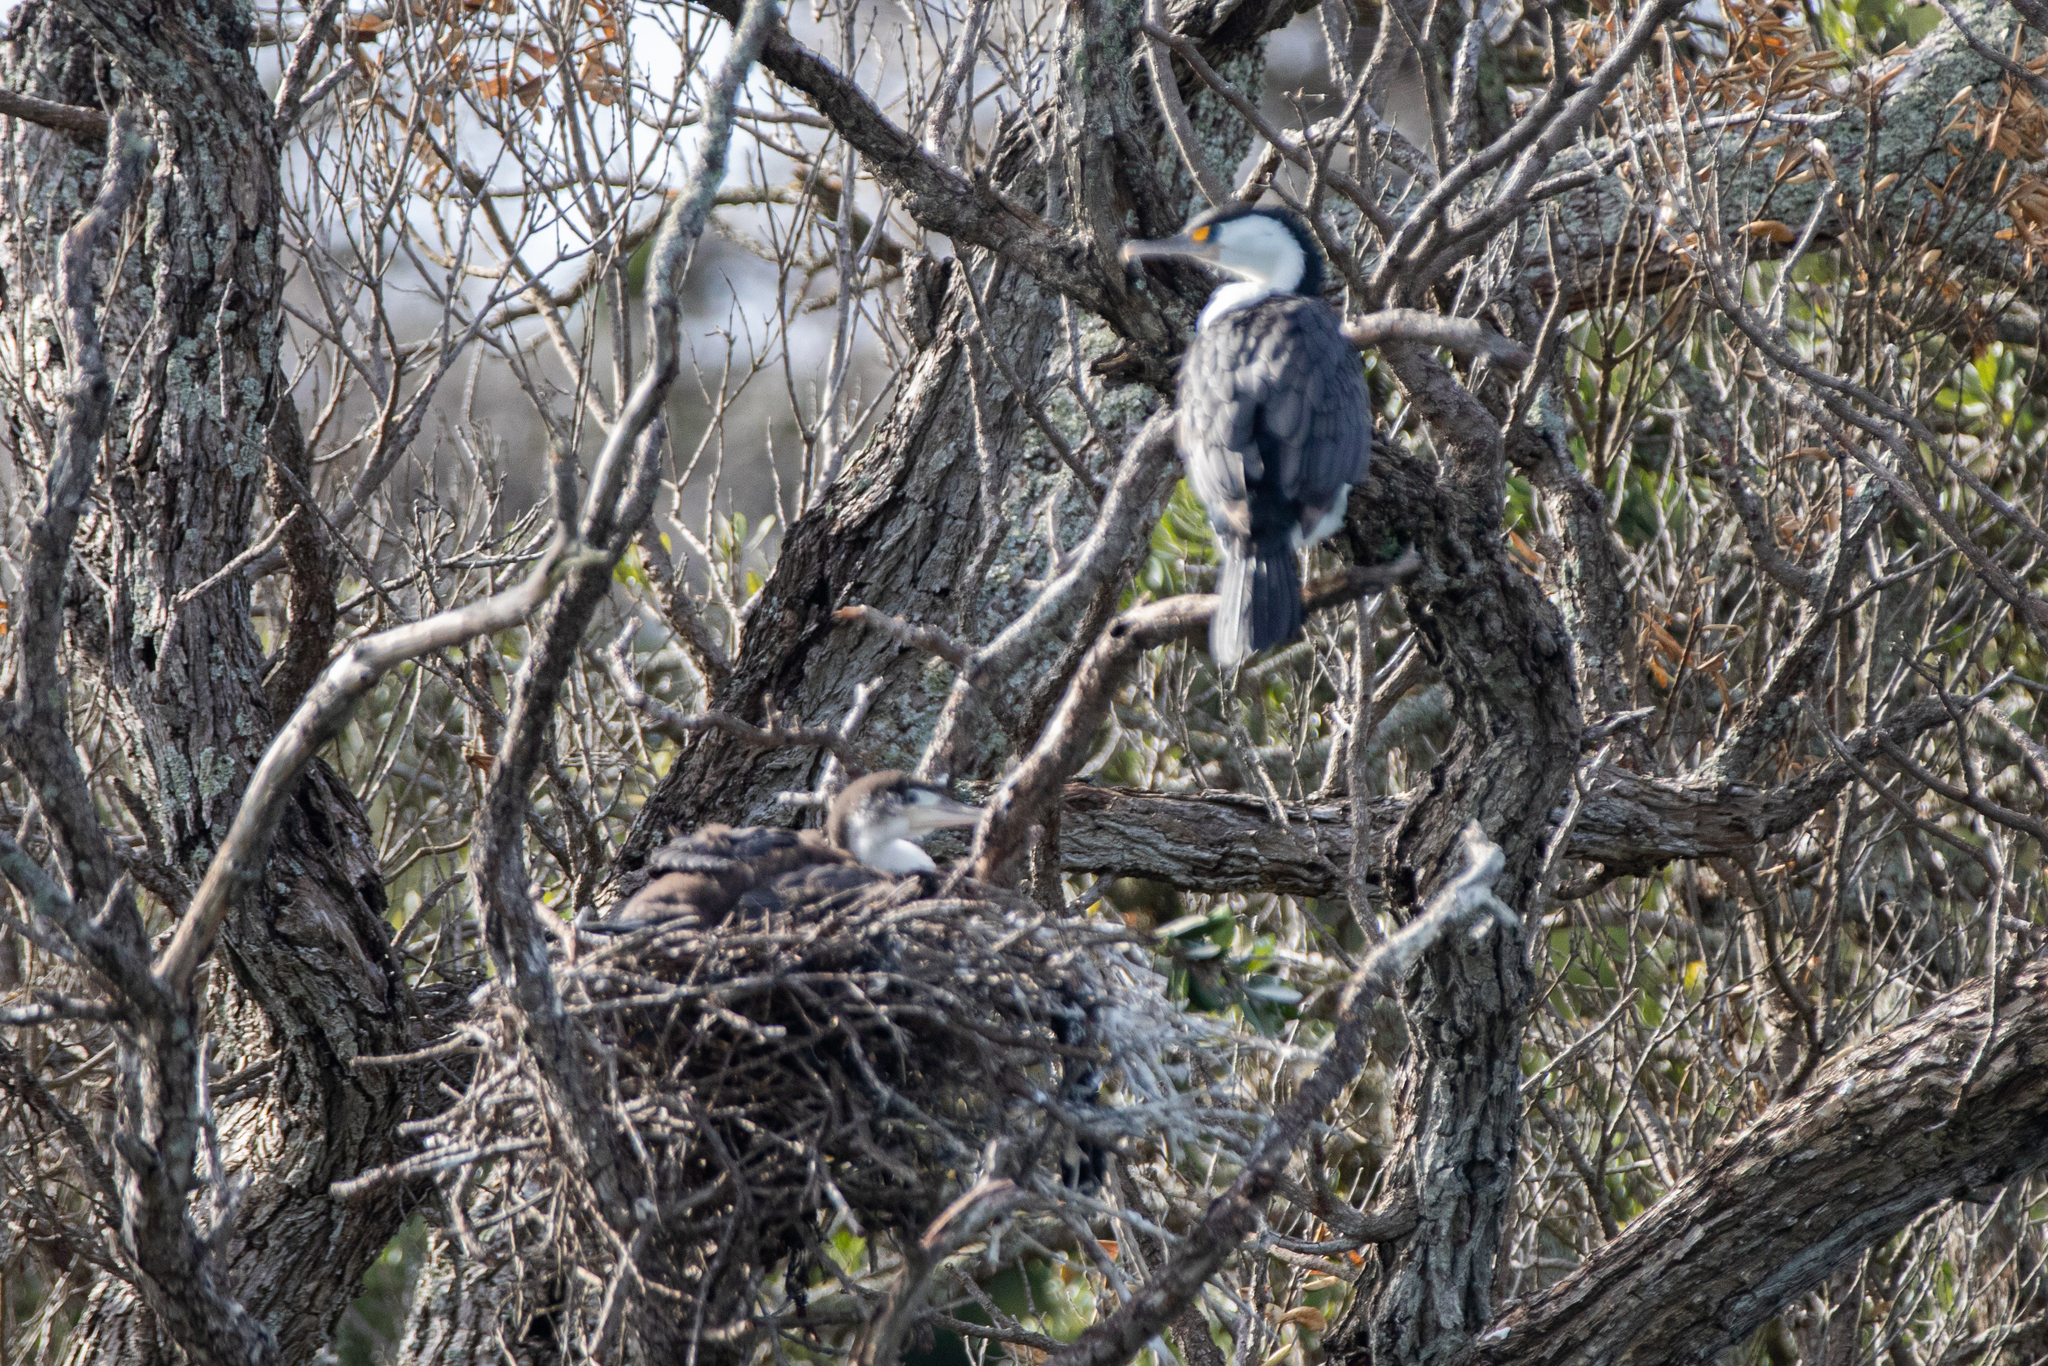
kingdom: Animalia
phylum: Chordata
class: Aves
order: Suliformes
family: Phalacrocoracidae
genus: Phalacrocorax
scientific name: Phalacrocorax varius
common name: Pied cormorant
